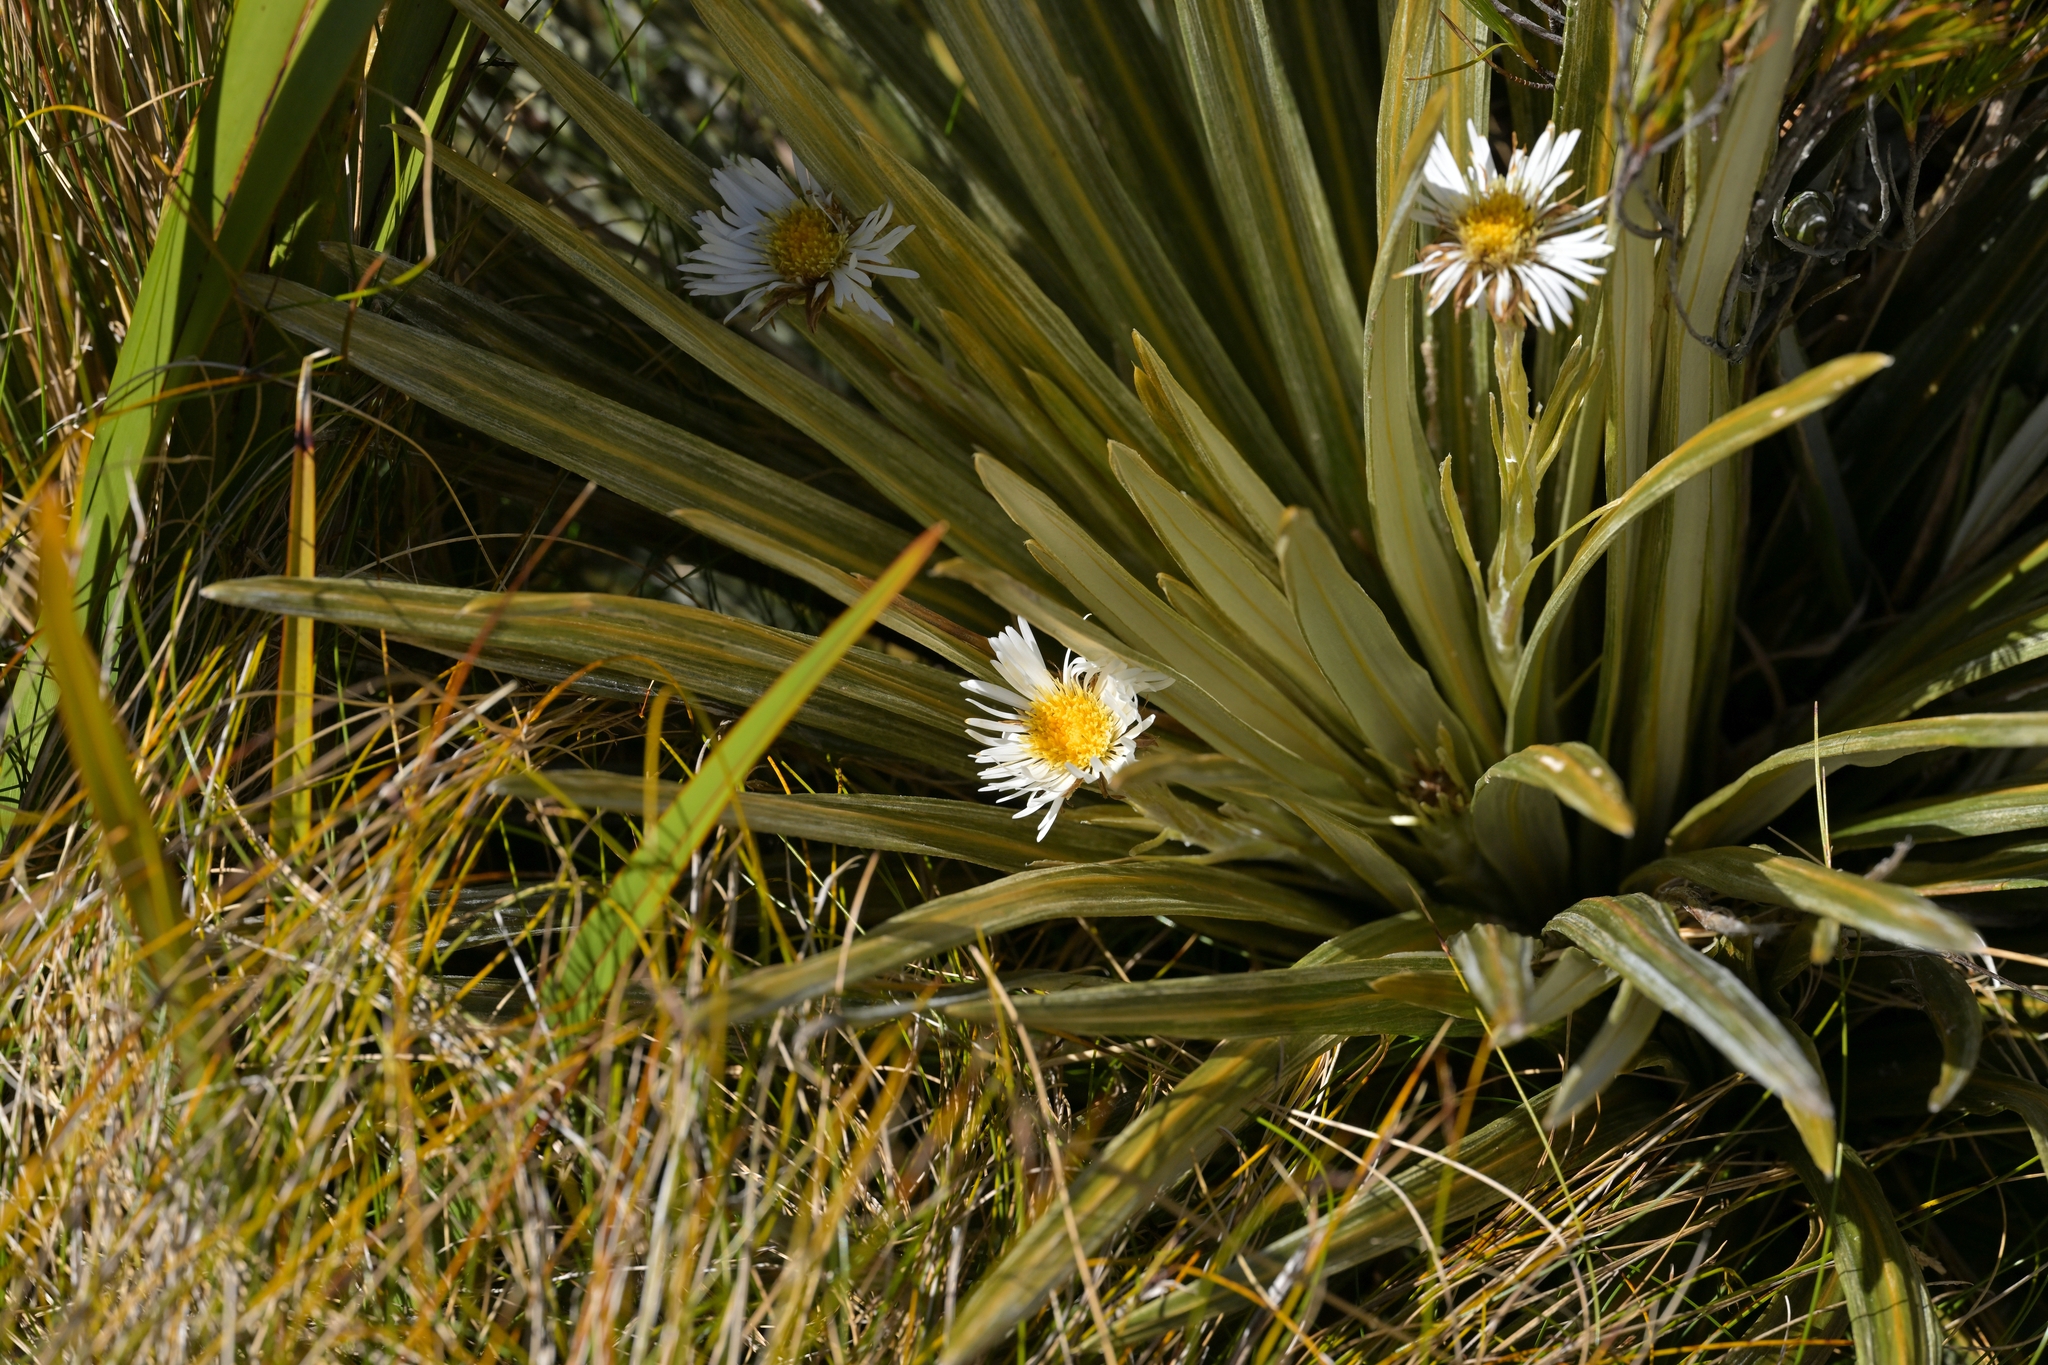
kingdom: Plantae
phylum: Tracheophyta
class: Magnoliopsida
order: Asterales
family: Asteraceae
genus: Celmisia
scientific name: Celmisia armstrongii
